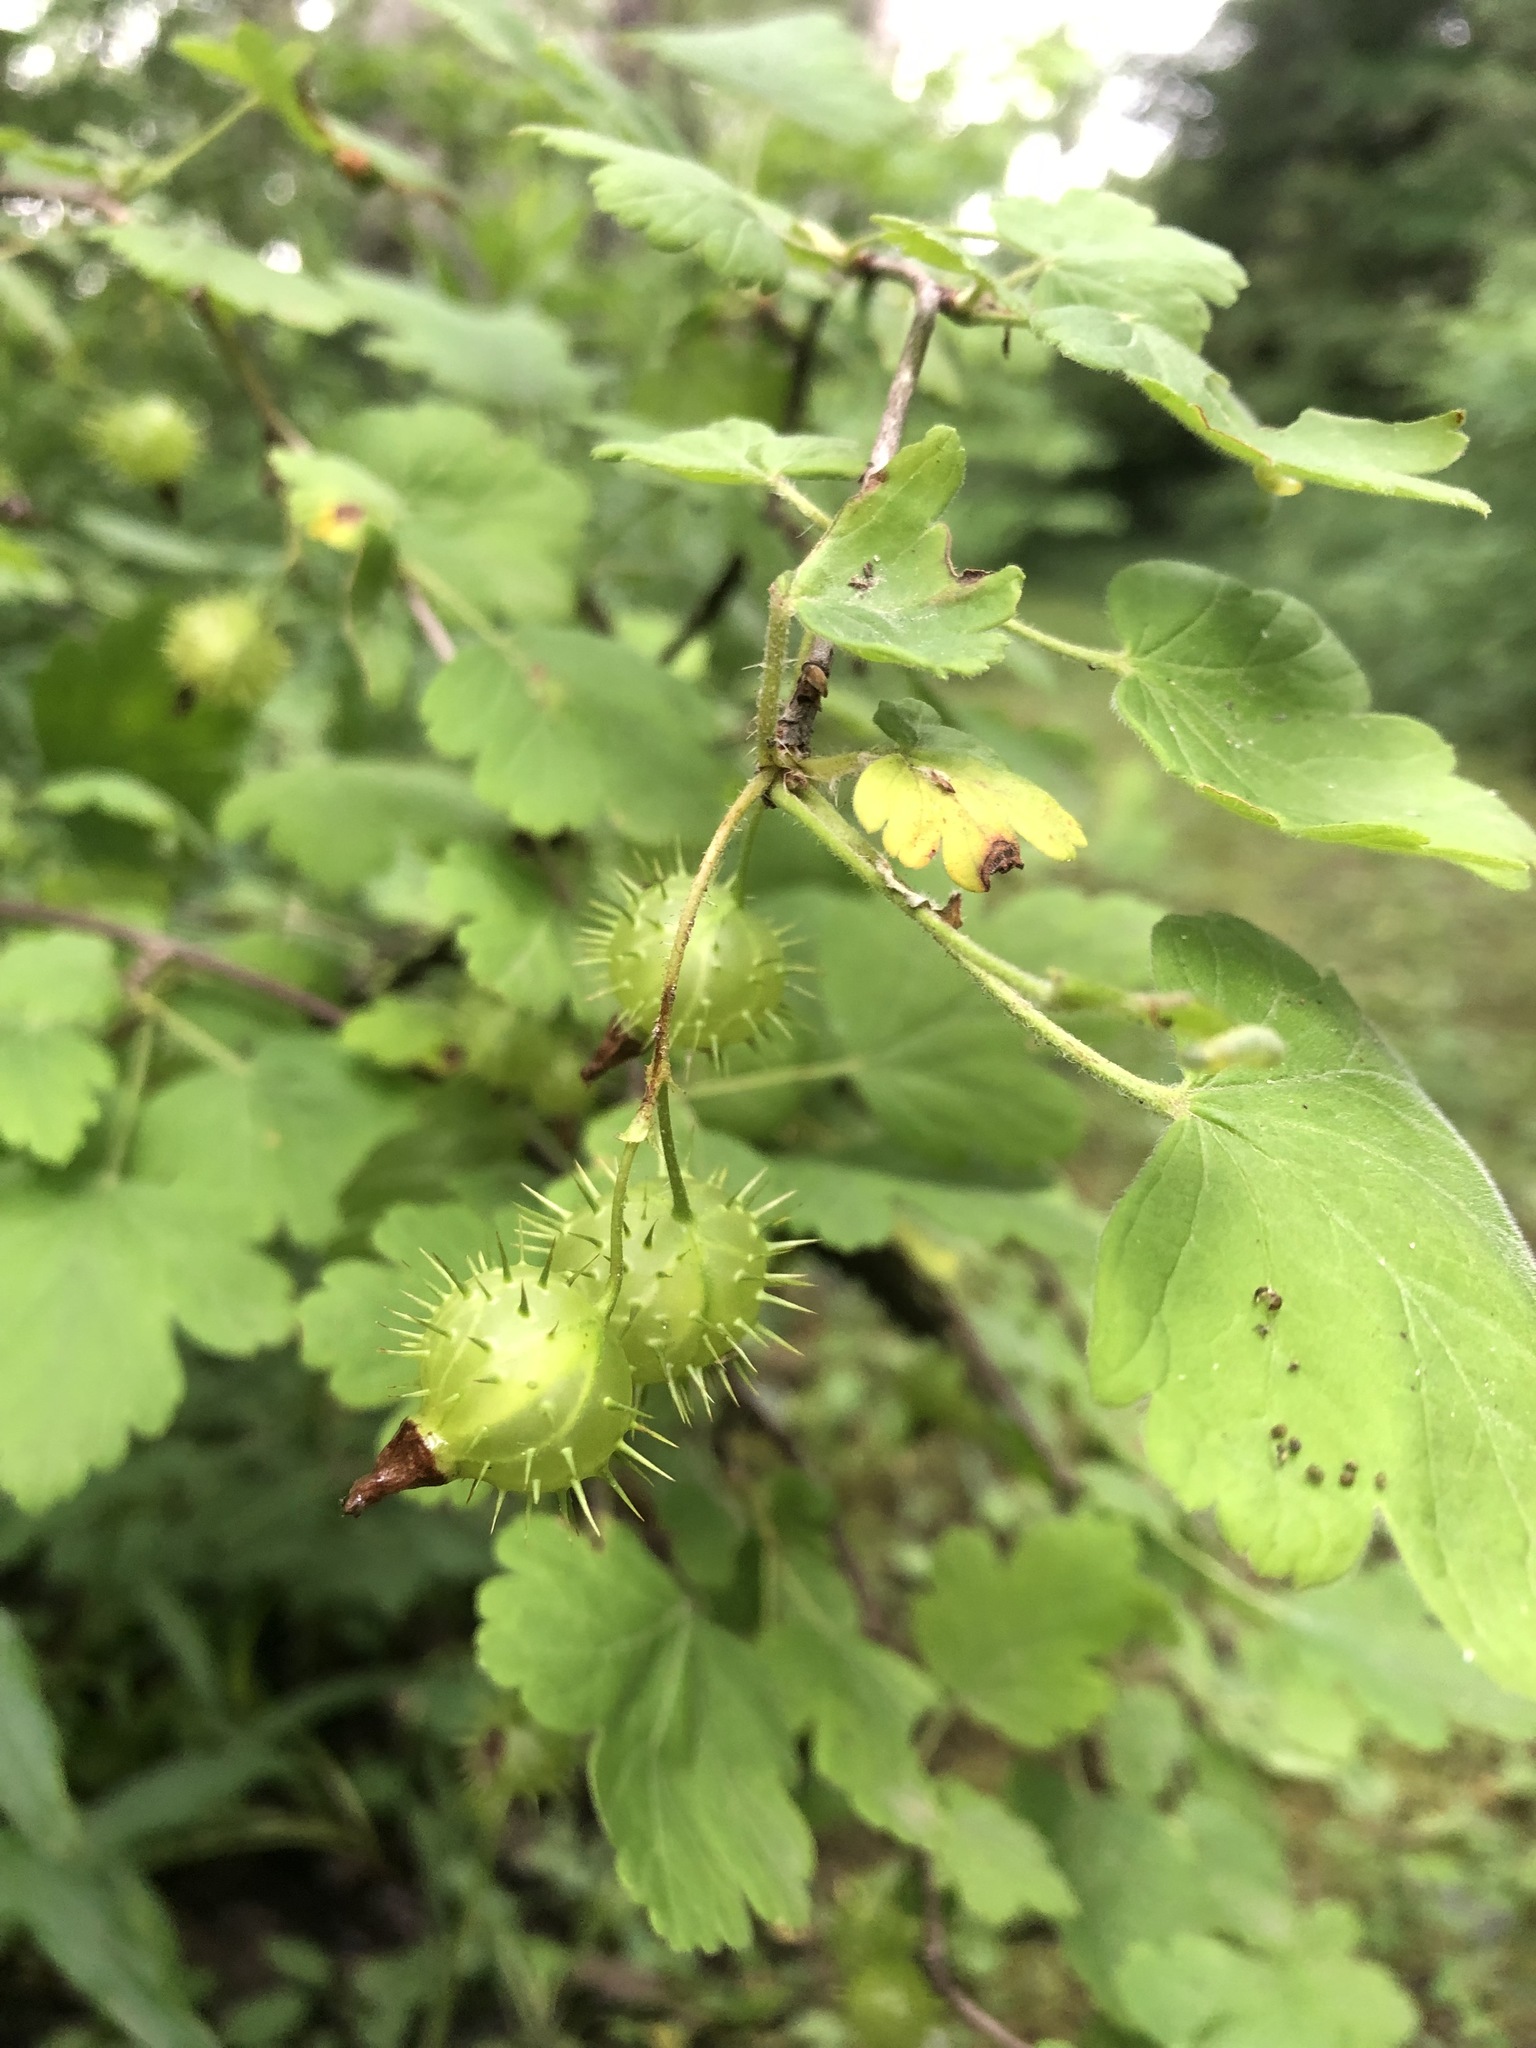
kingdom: Plantae
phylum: Tracheophyta
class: Magnoliopsida
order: Saxifragales
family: Grossulariaceae
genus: Ribes
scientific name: Ribes cynosbati
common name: American gooseberry
